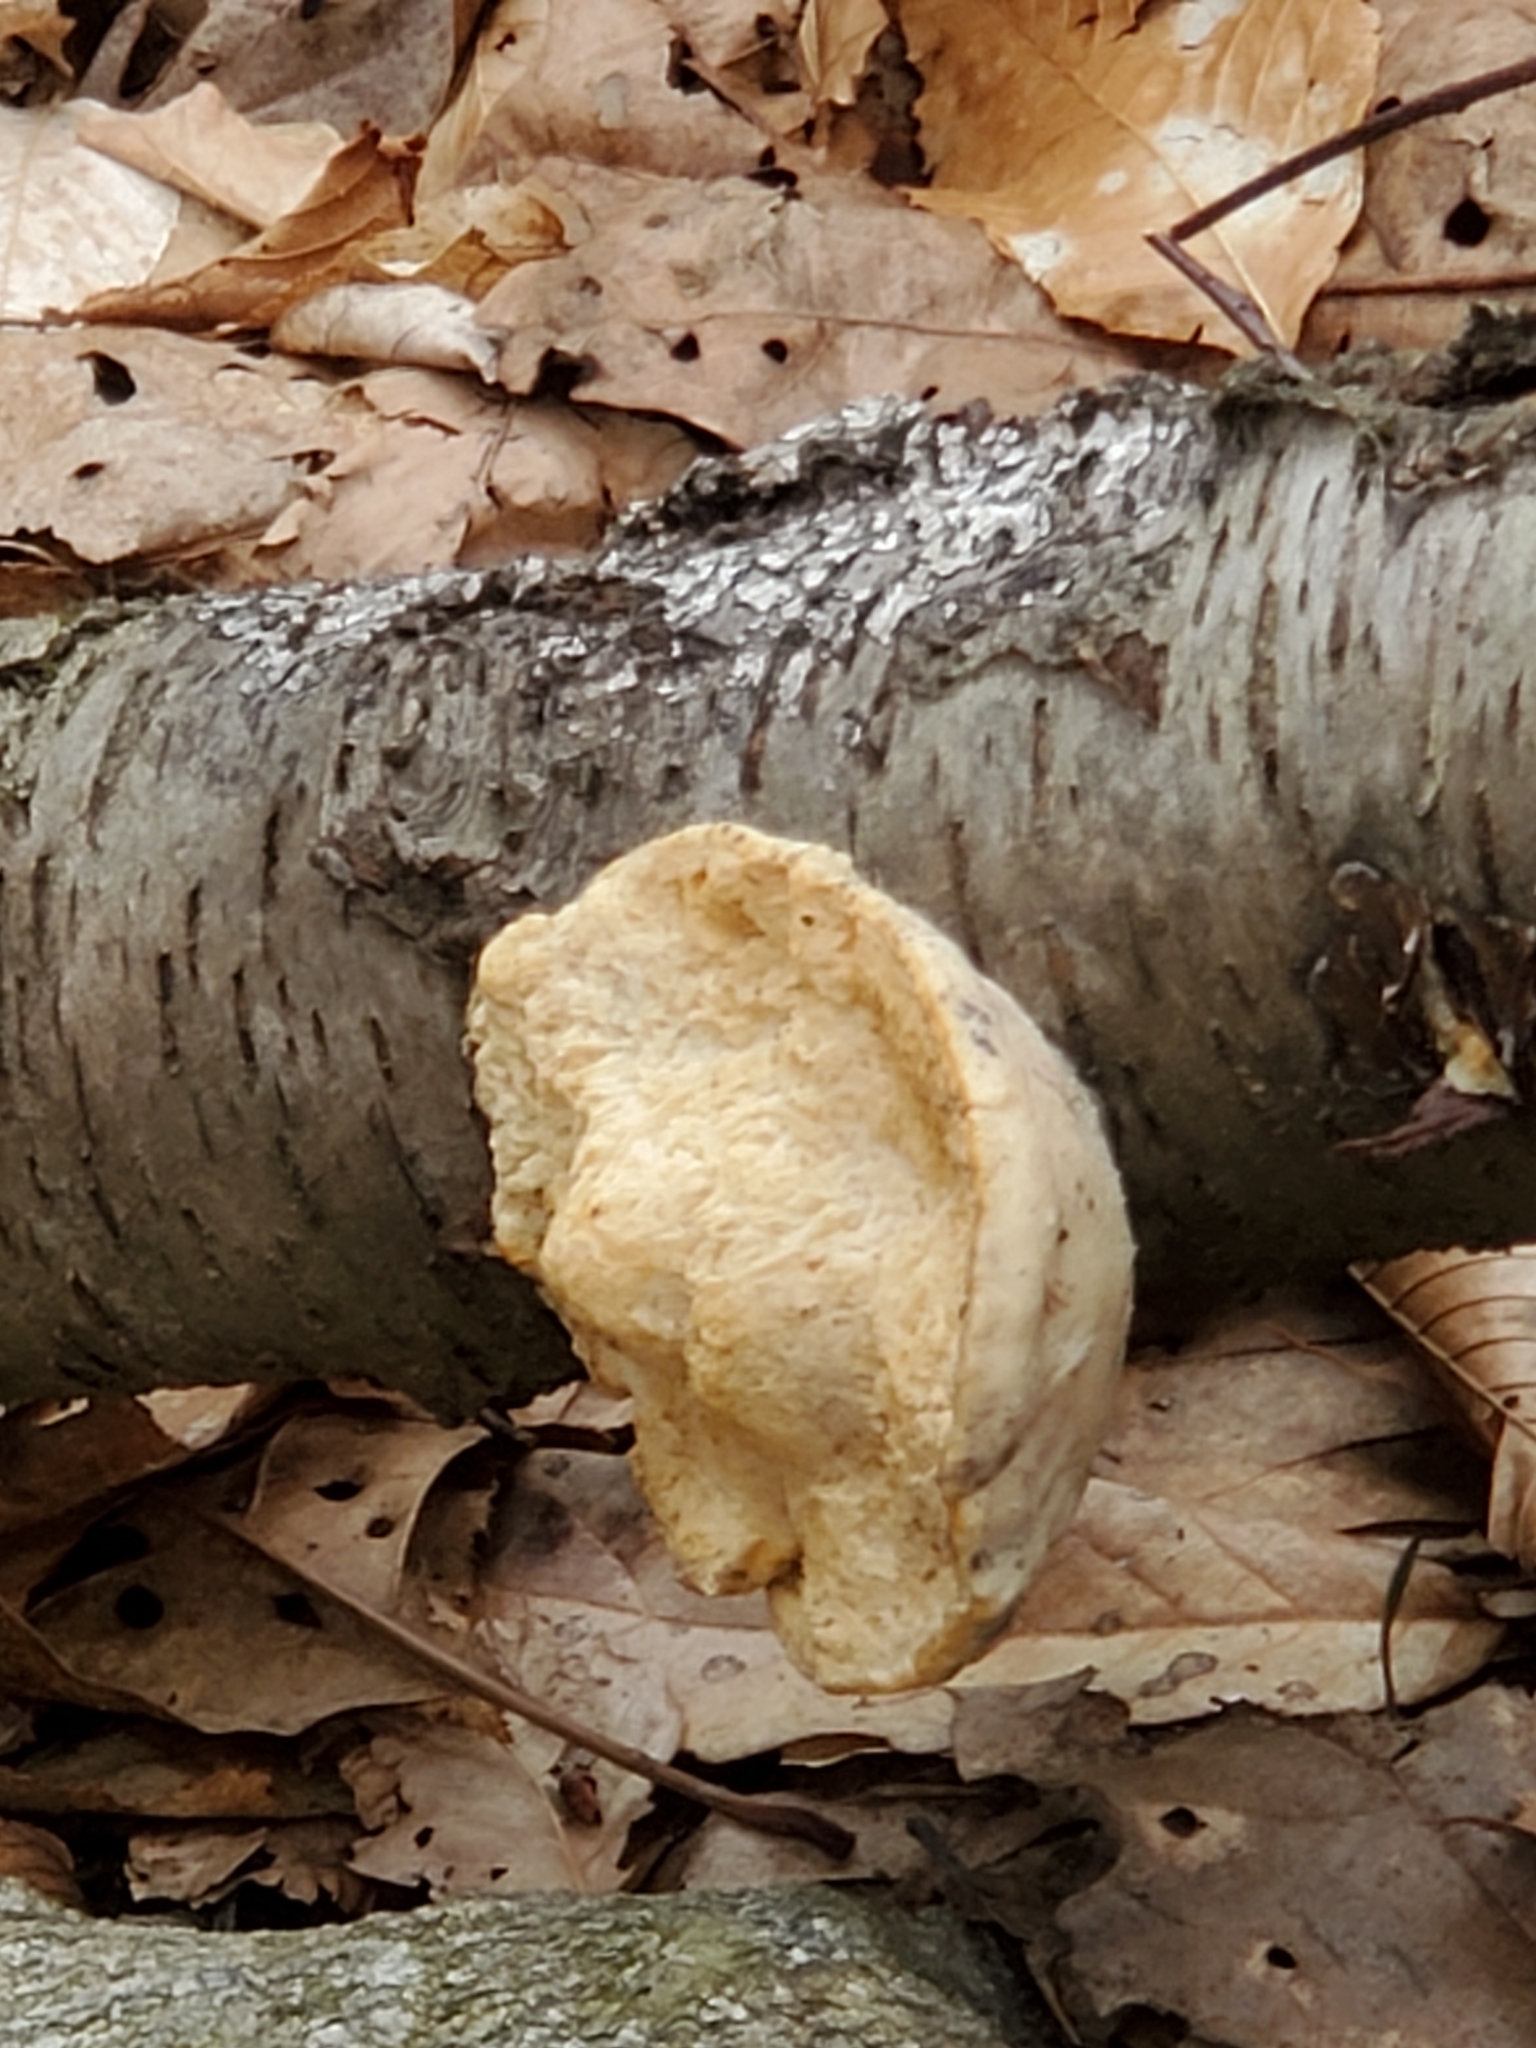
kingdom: Fungi
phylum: Basidiomycota
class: Agaricomycetes
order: Polyporales
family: Fomitopsidaceae
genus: Fomitopsis
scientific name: Fomitopsis betulina
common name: Birch polypore
